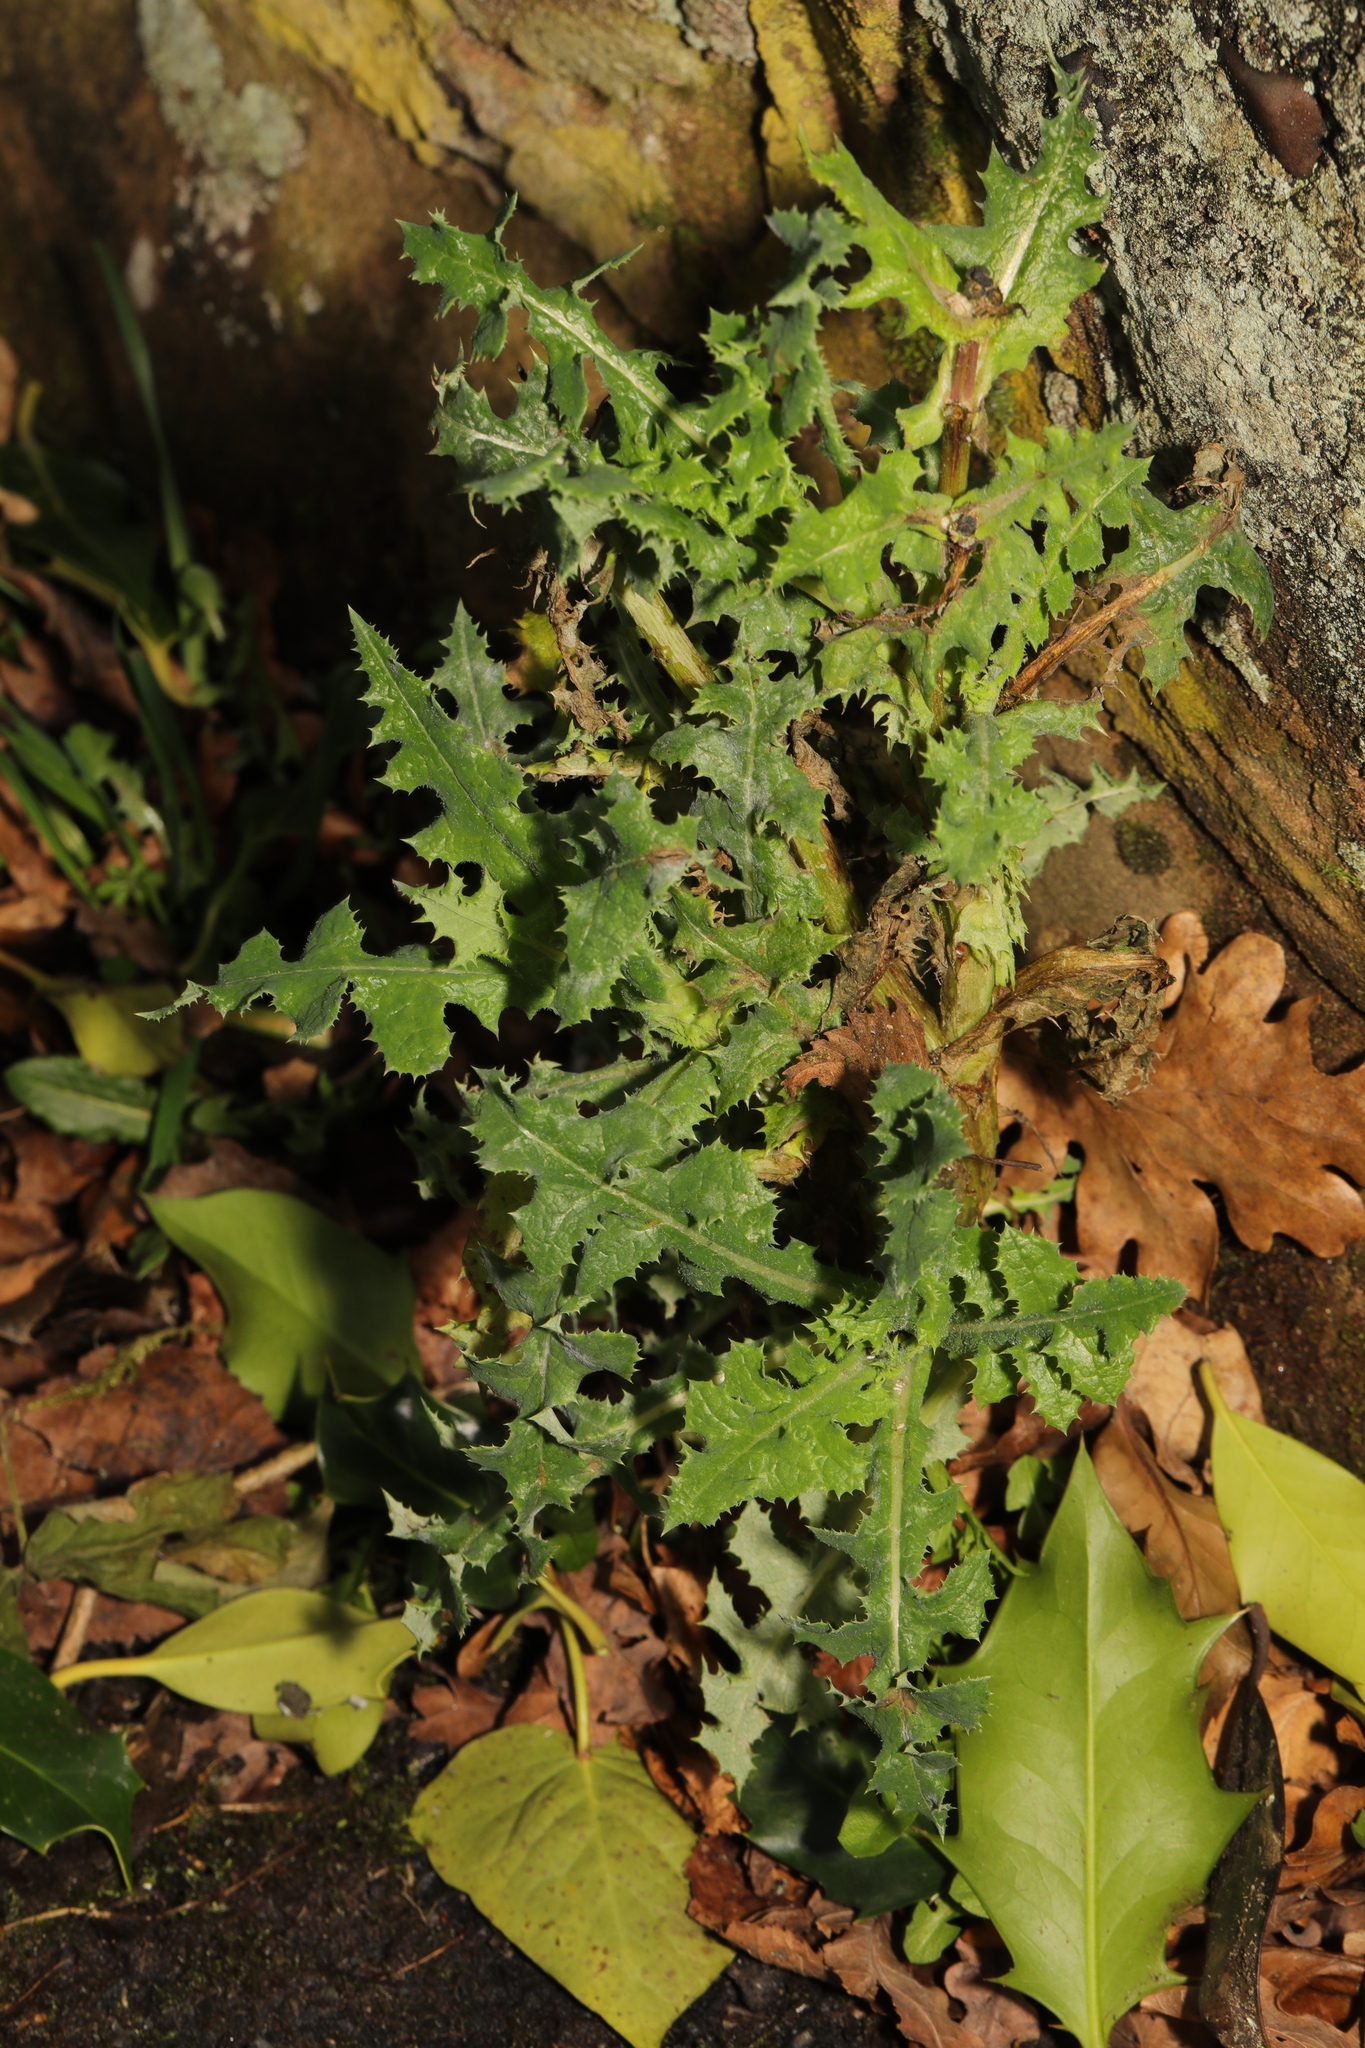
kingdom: Plantae
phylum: Tracheophyta
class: Magnoliopsida
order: Asterales
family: Asteraceae
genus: Sonchus
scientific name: Sonchus asper
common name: Prickly sow-thistle
